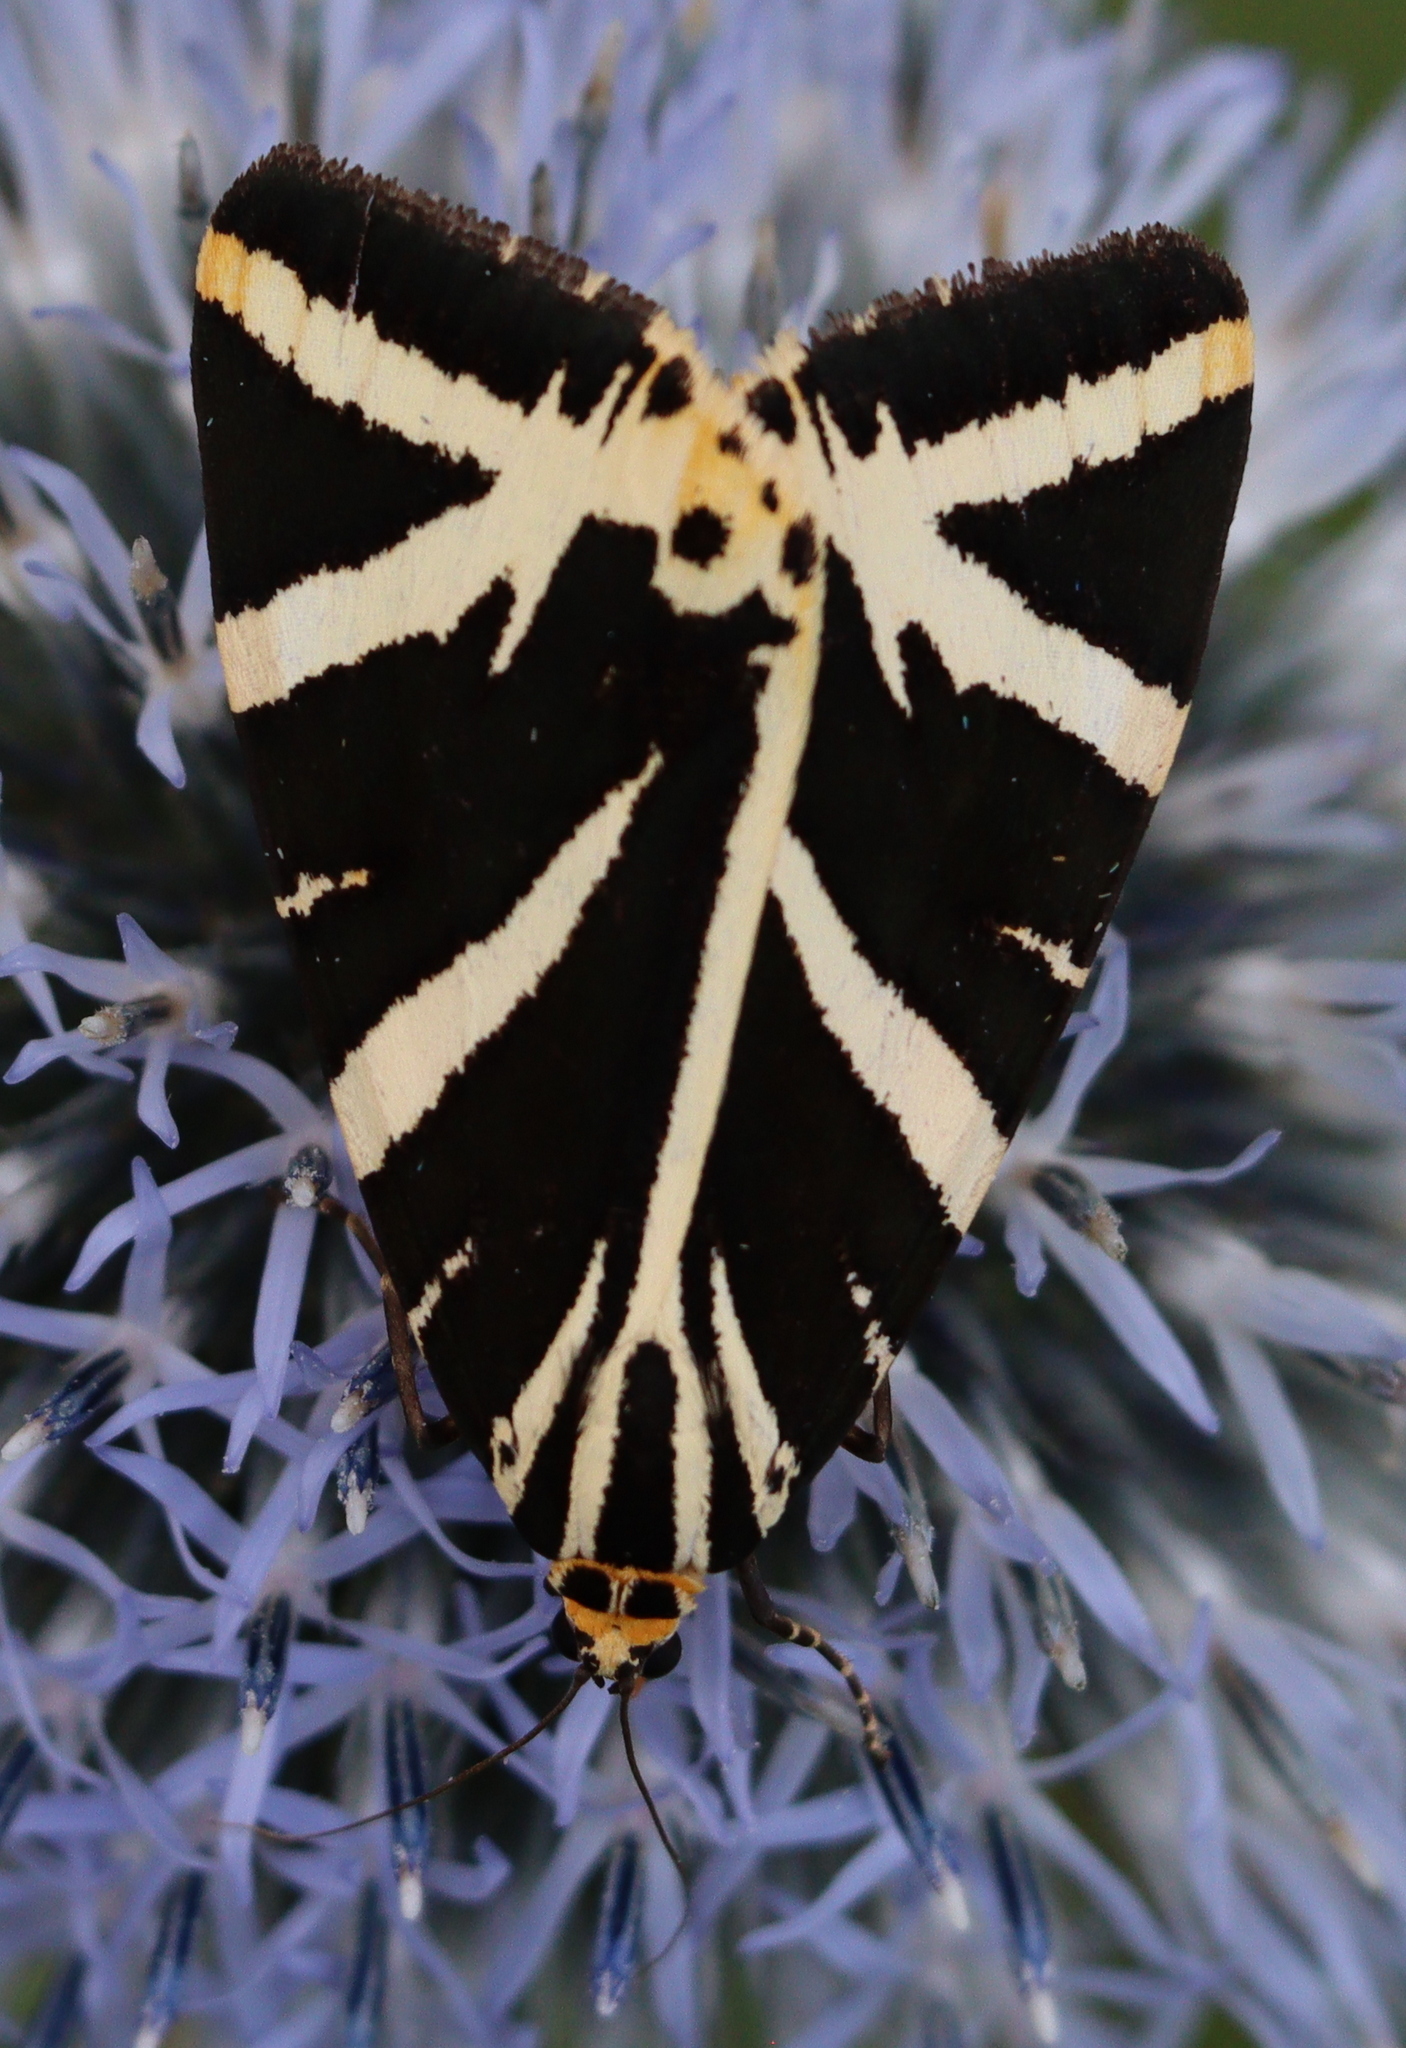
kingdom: Animalia
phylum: Arthropoda
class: Insecta
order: Lepidoptera
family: Erebidae
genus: Euplagia
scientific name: Euplagia quadripunctaria
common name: Jersey tiger
